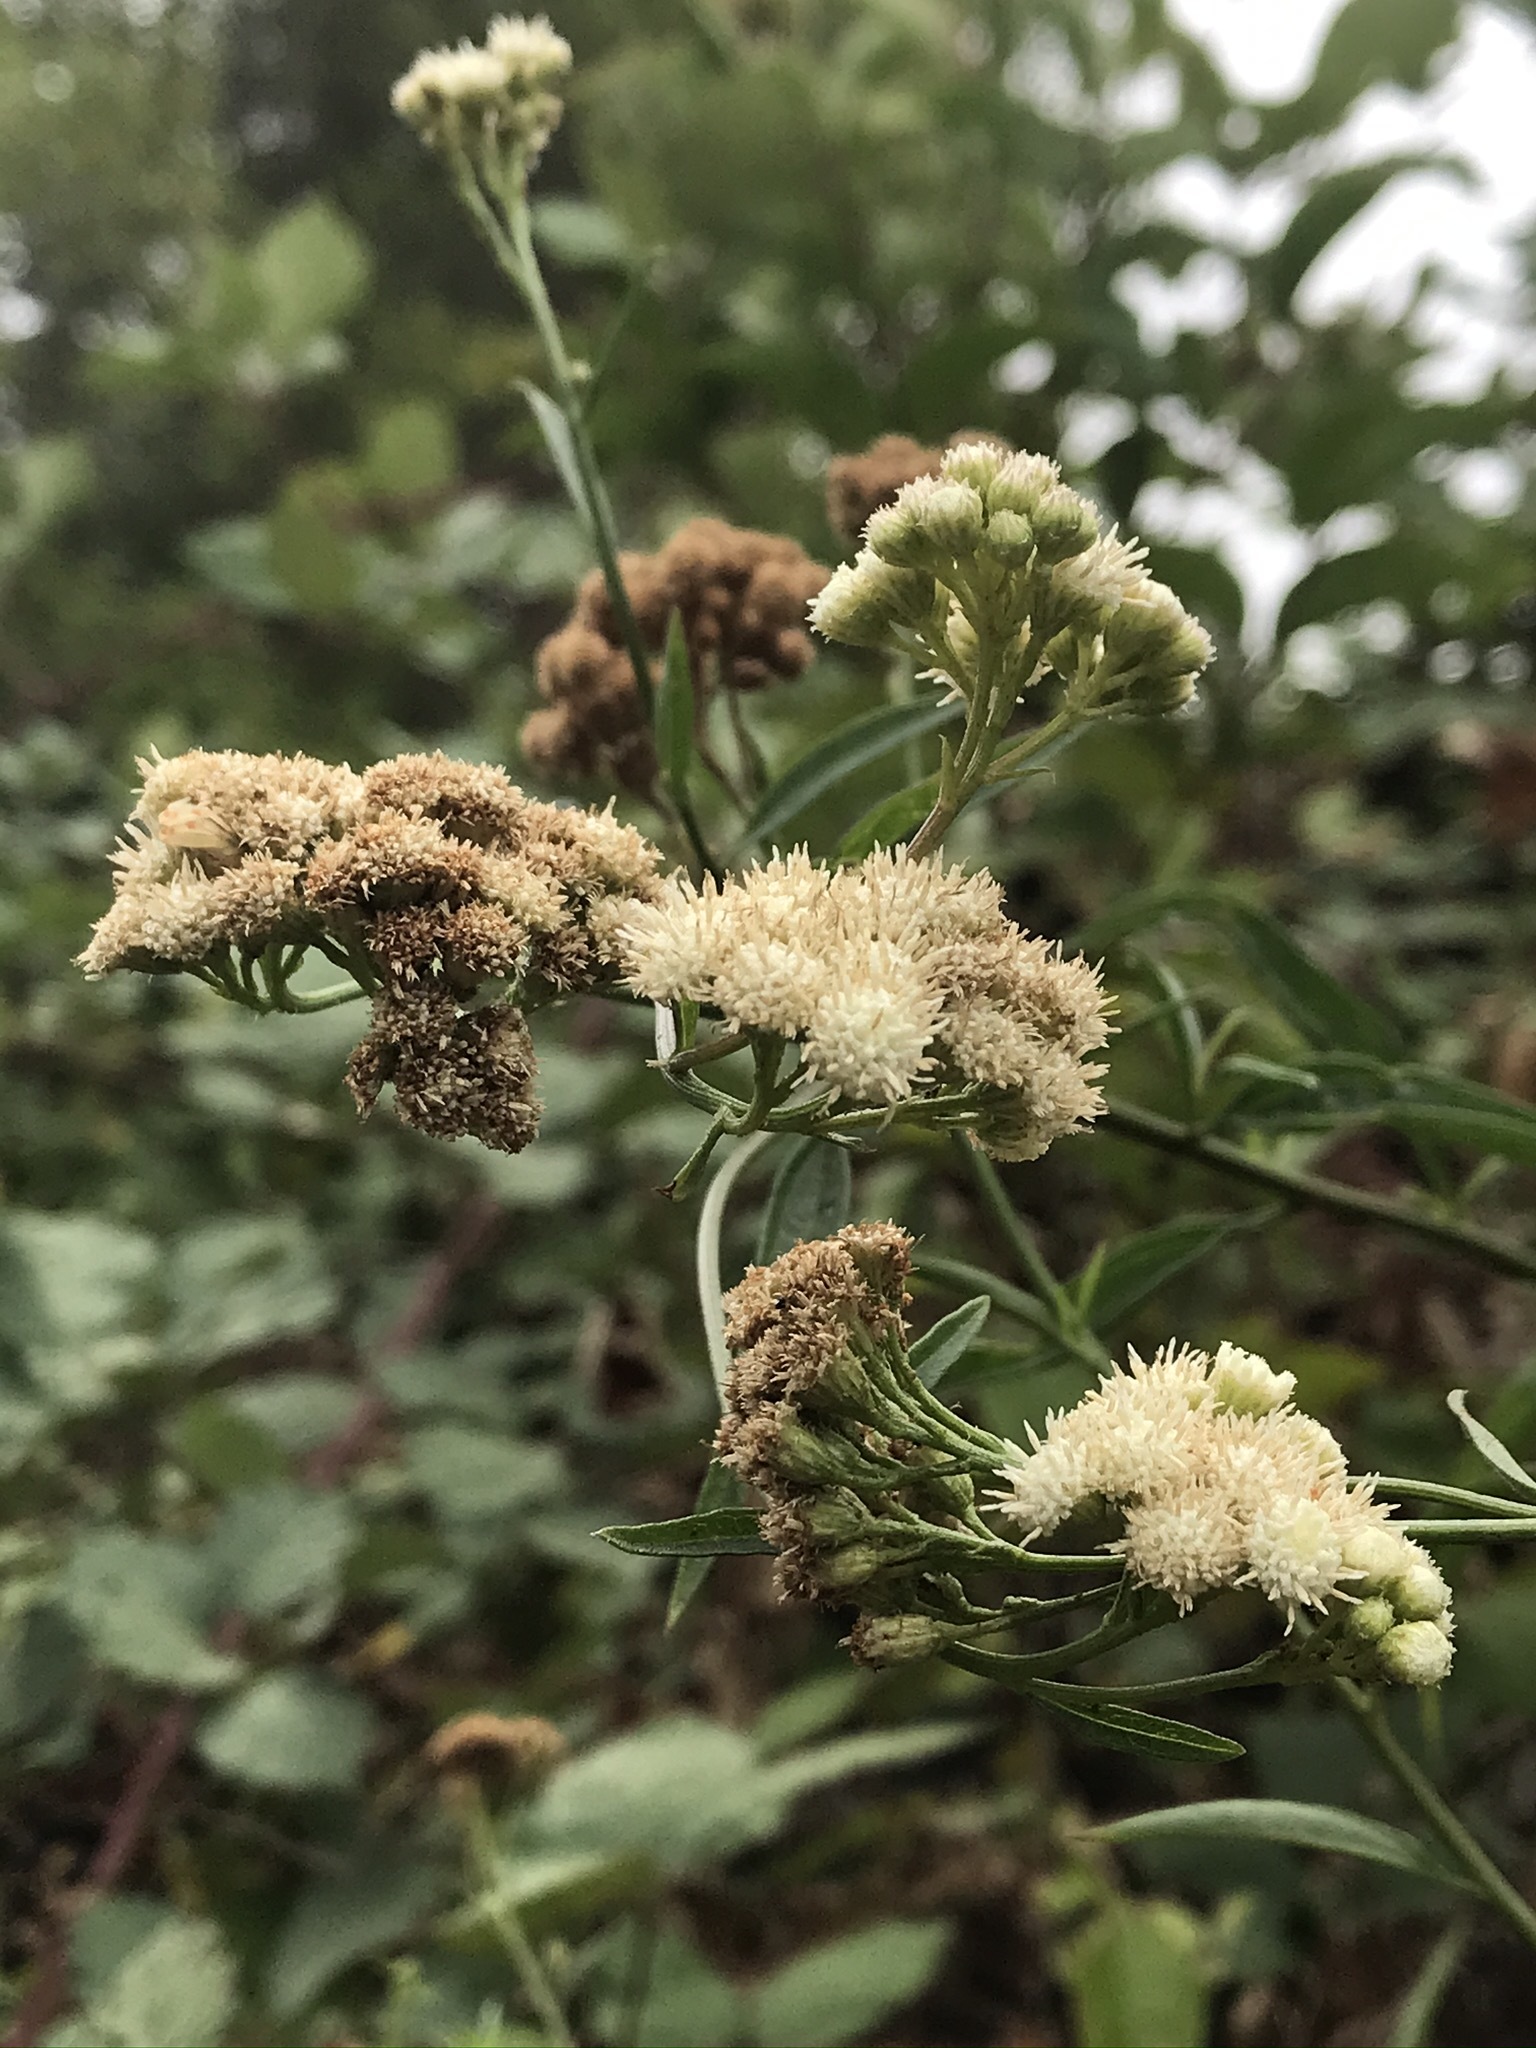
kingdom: Plantae
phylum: Tracheophyta
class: Magnoliopsida
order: Asterales
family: Asteraceae
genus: Baccharis
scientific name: Baccharis glutinosa
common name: Saltmarsh baccharis
